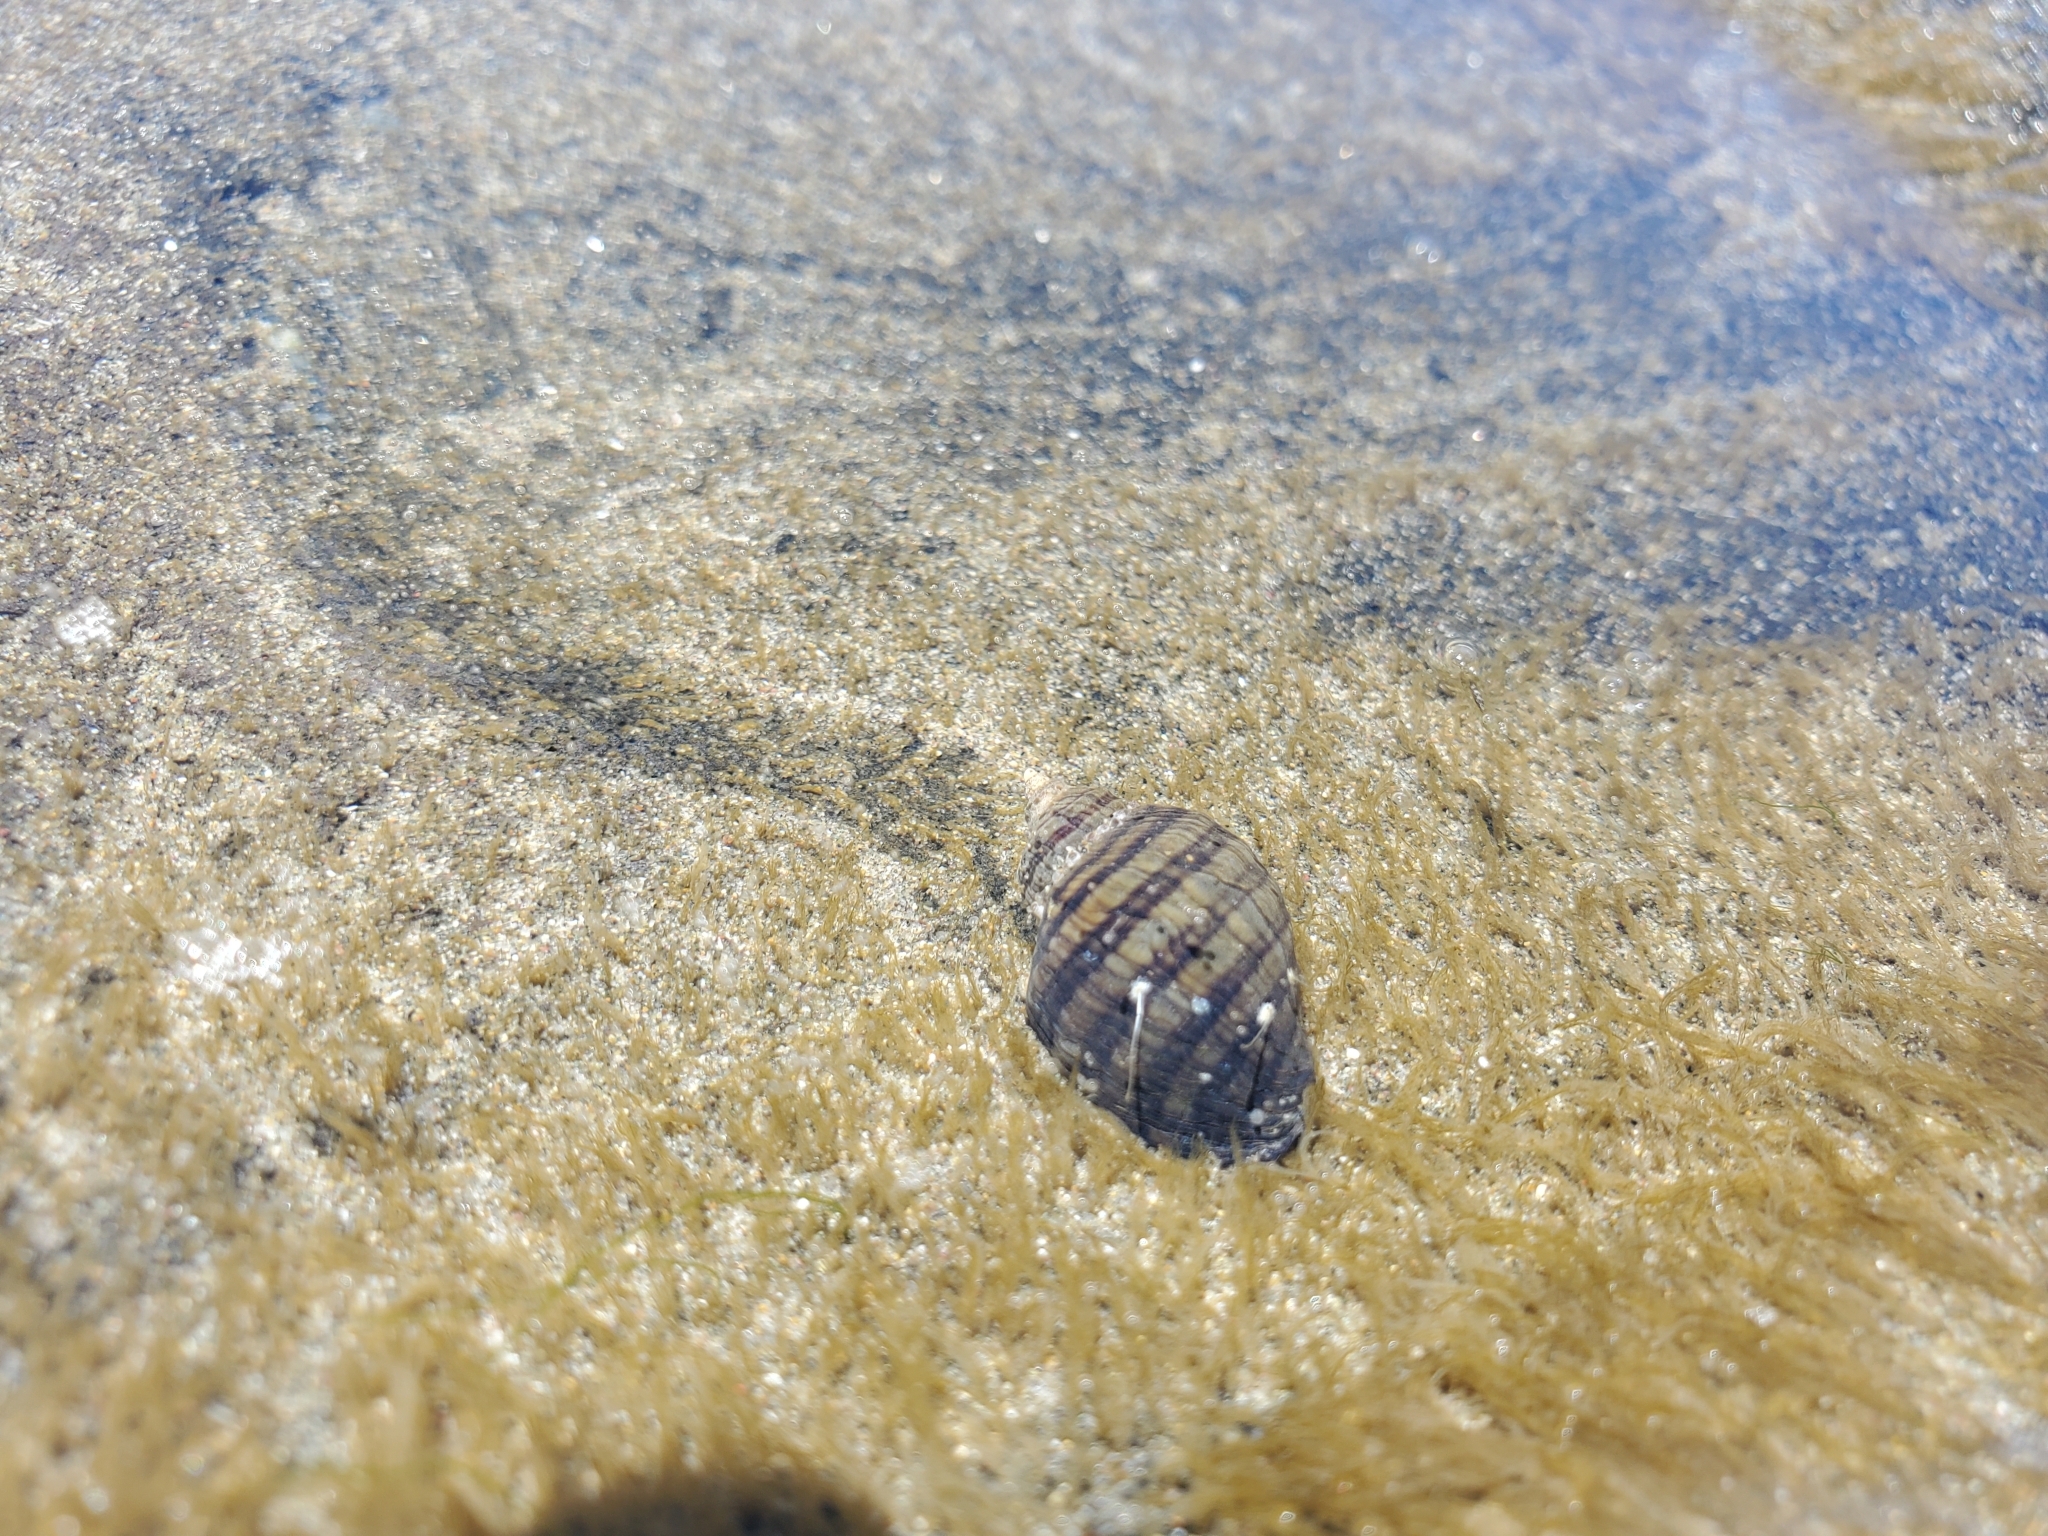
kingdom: Animalia
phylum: Mollusca
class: Gastropoda
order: Neogastropoda
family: Muricidae
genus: Nucella
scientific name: Nucella ostrina
